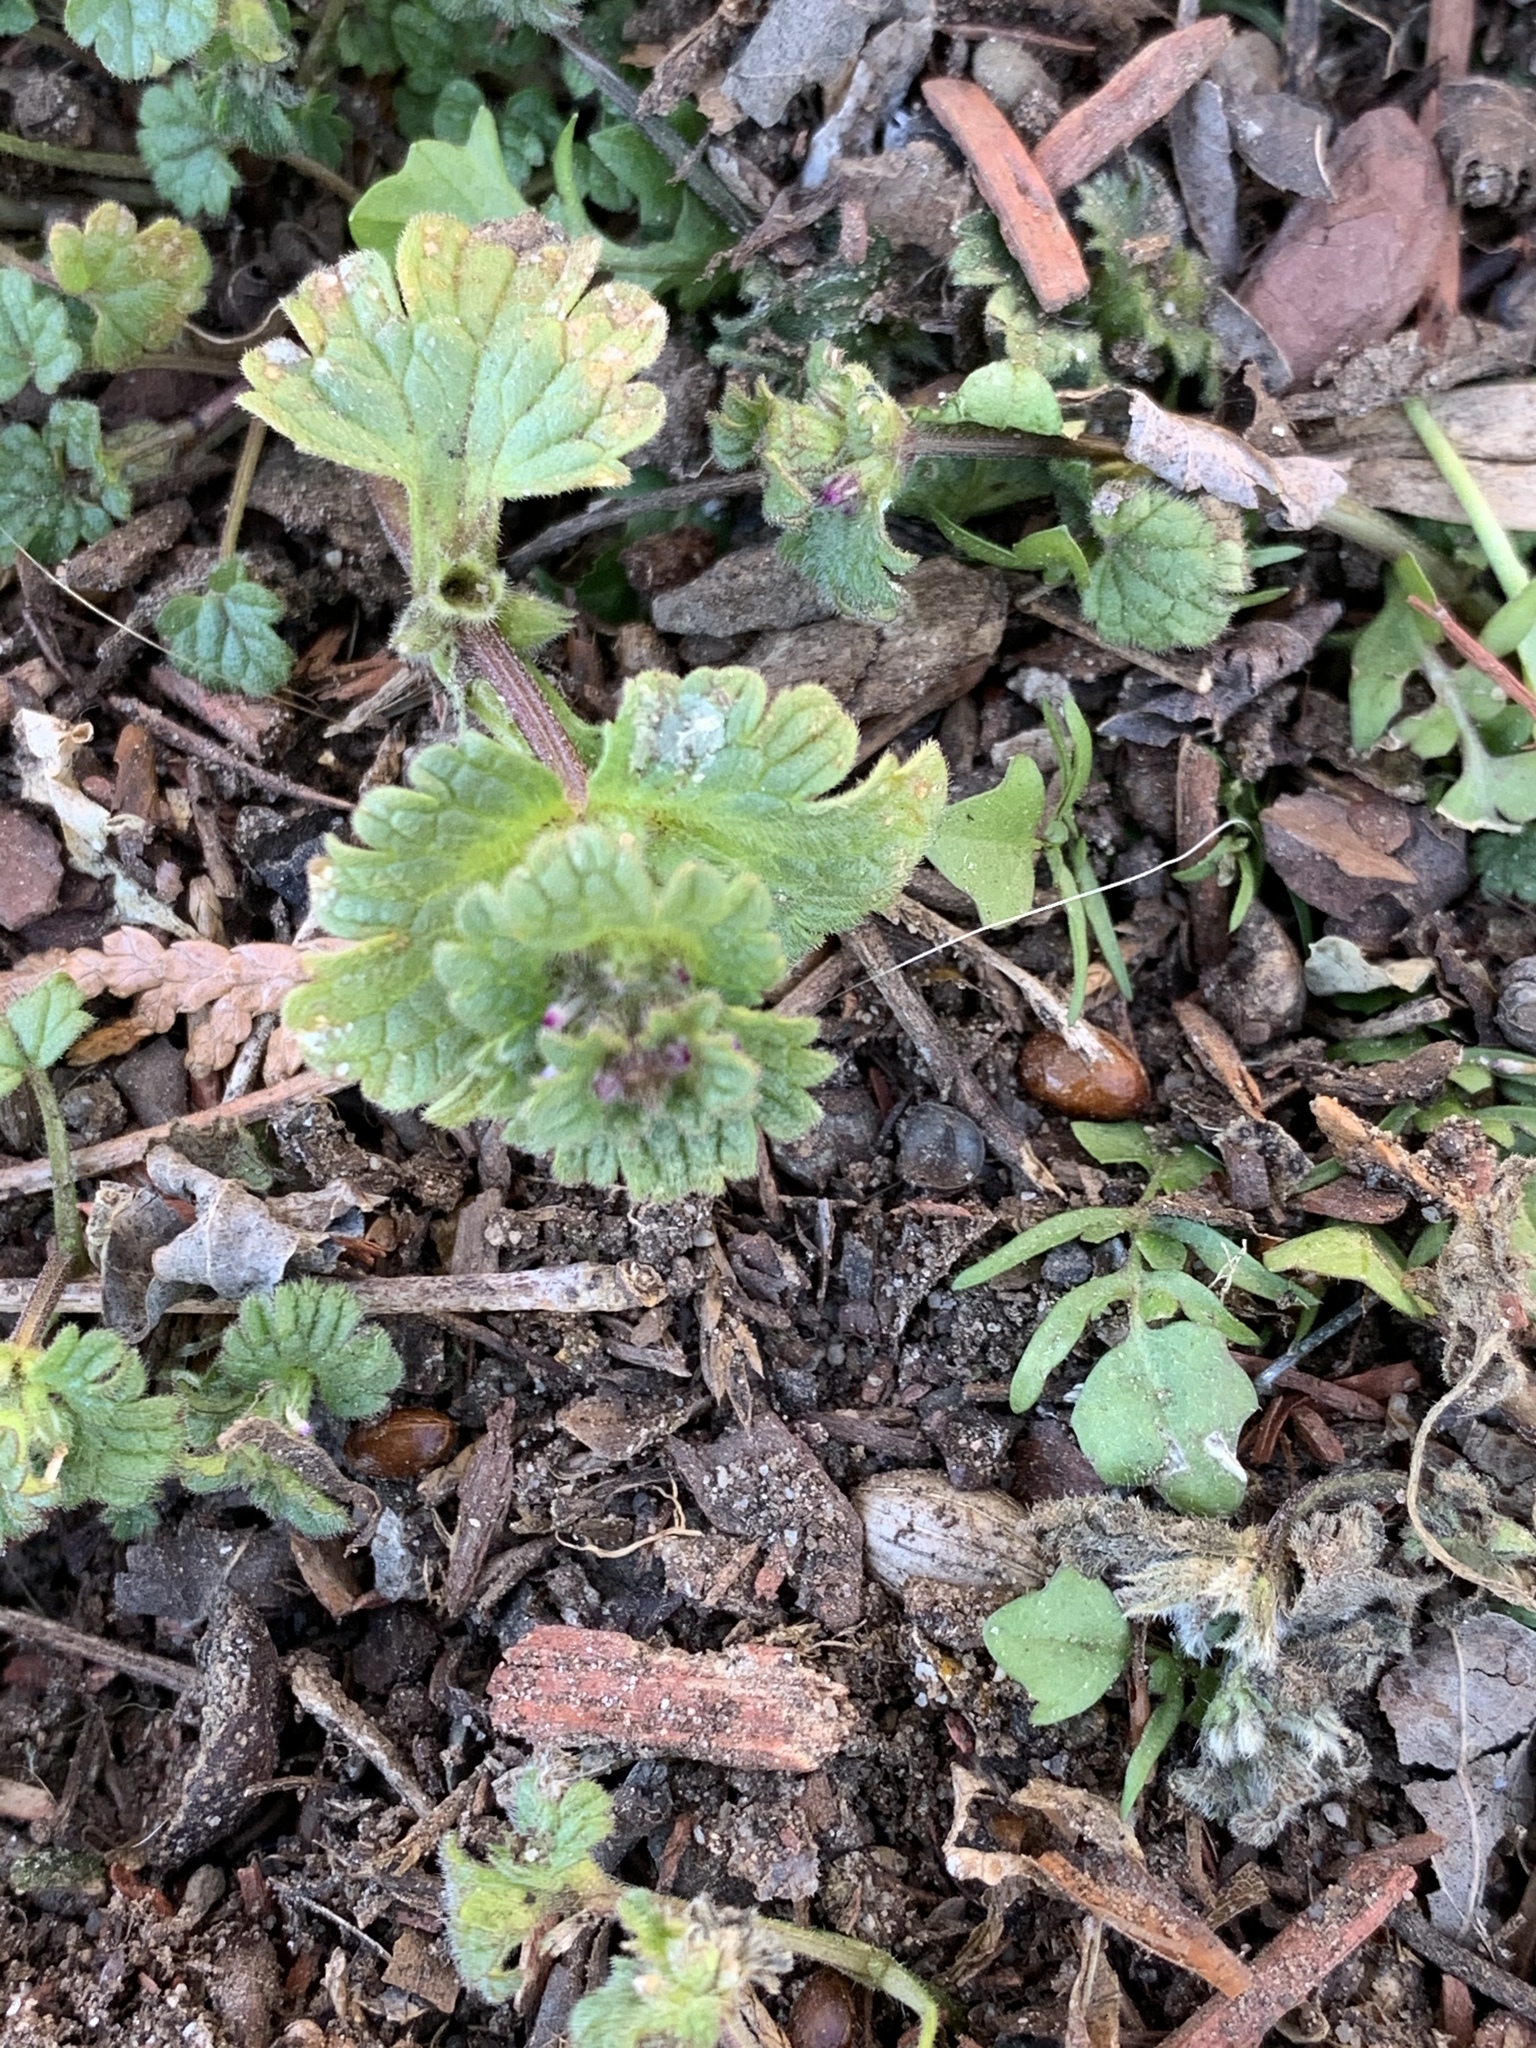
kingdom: Plantae
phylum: Tracheophyta
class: Magnoliopsida
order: Lamiales
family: Lamiaceae
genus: Lamium
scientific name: Lamium amplexicaule
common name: Henbit dead-nettle
